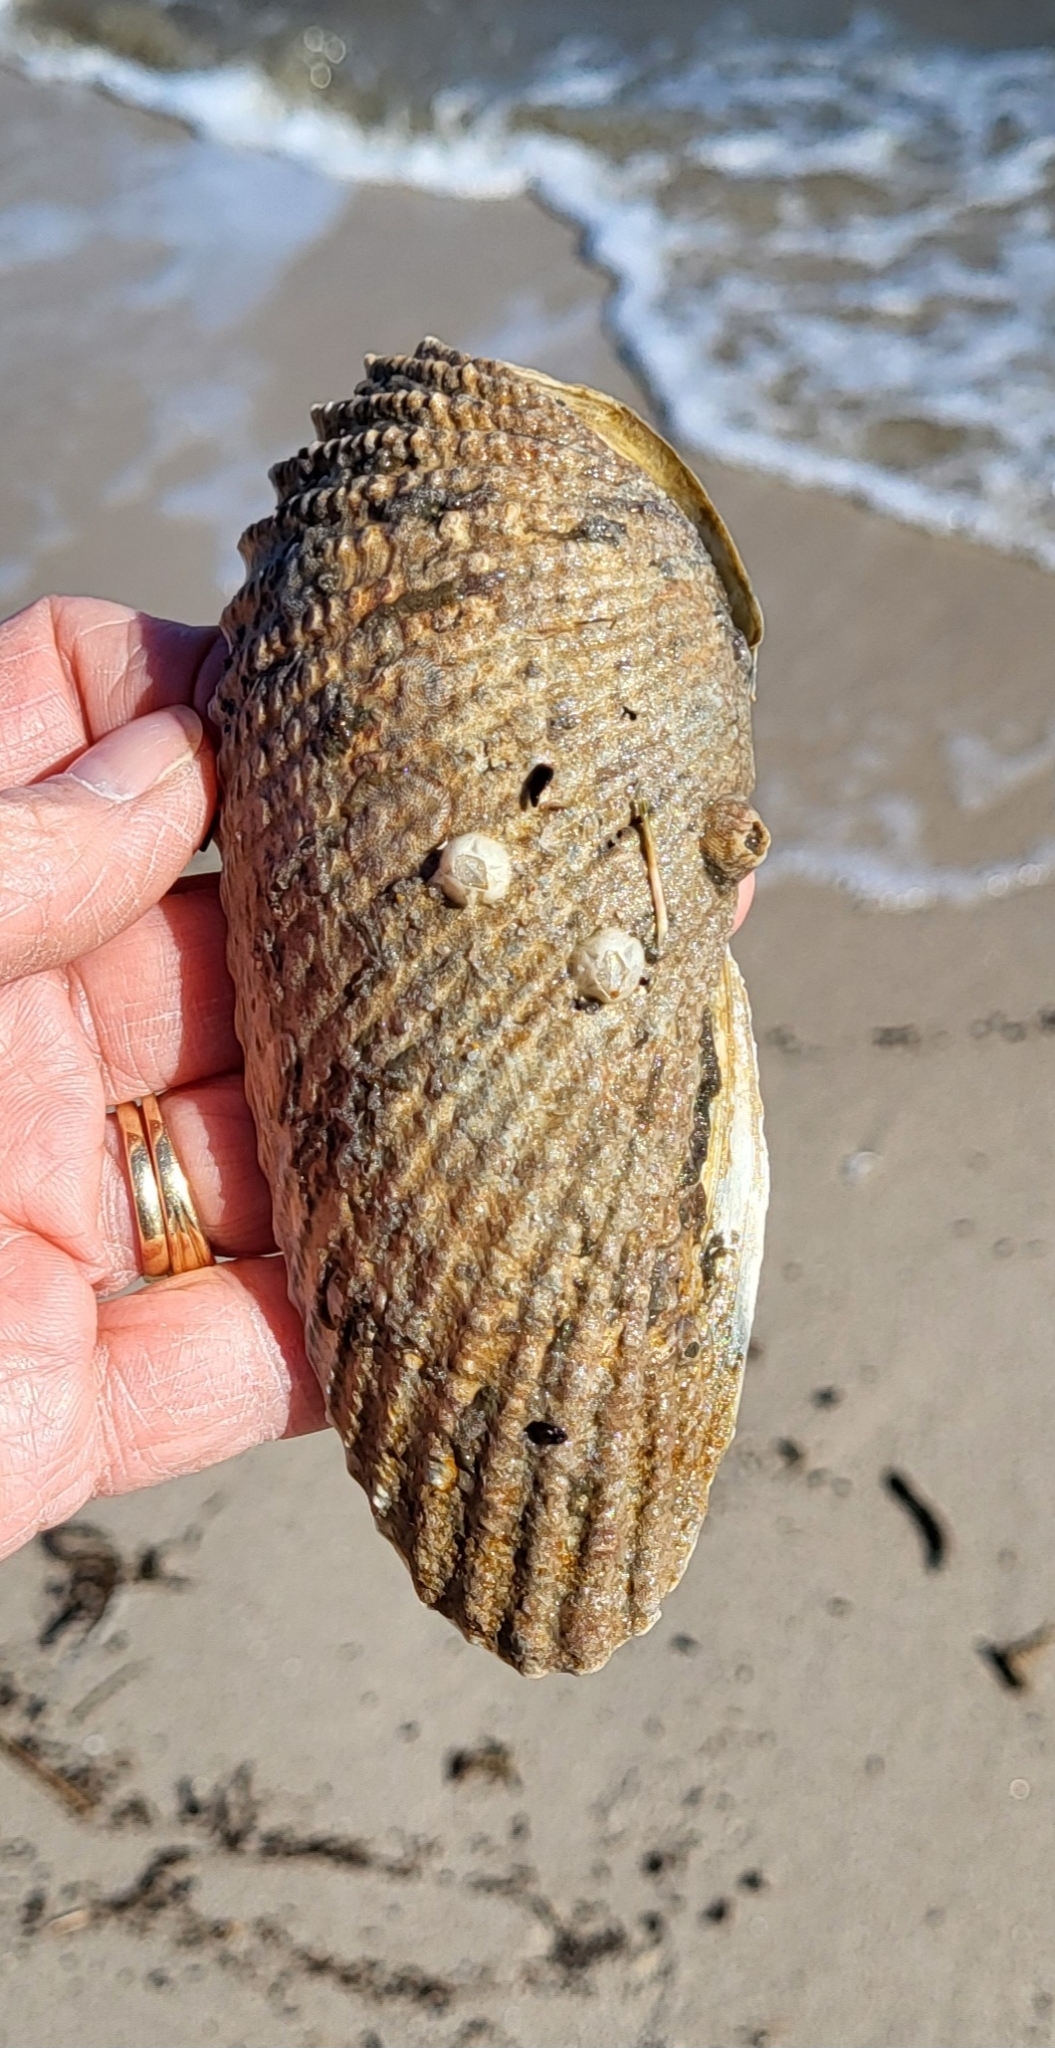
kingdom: Animalia
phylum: Mollusca
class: Bivalvia
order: Myida
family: Pholadidae
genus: Cyrtopleura
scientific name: Cyrtopleura costata
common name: Angel wing
